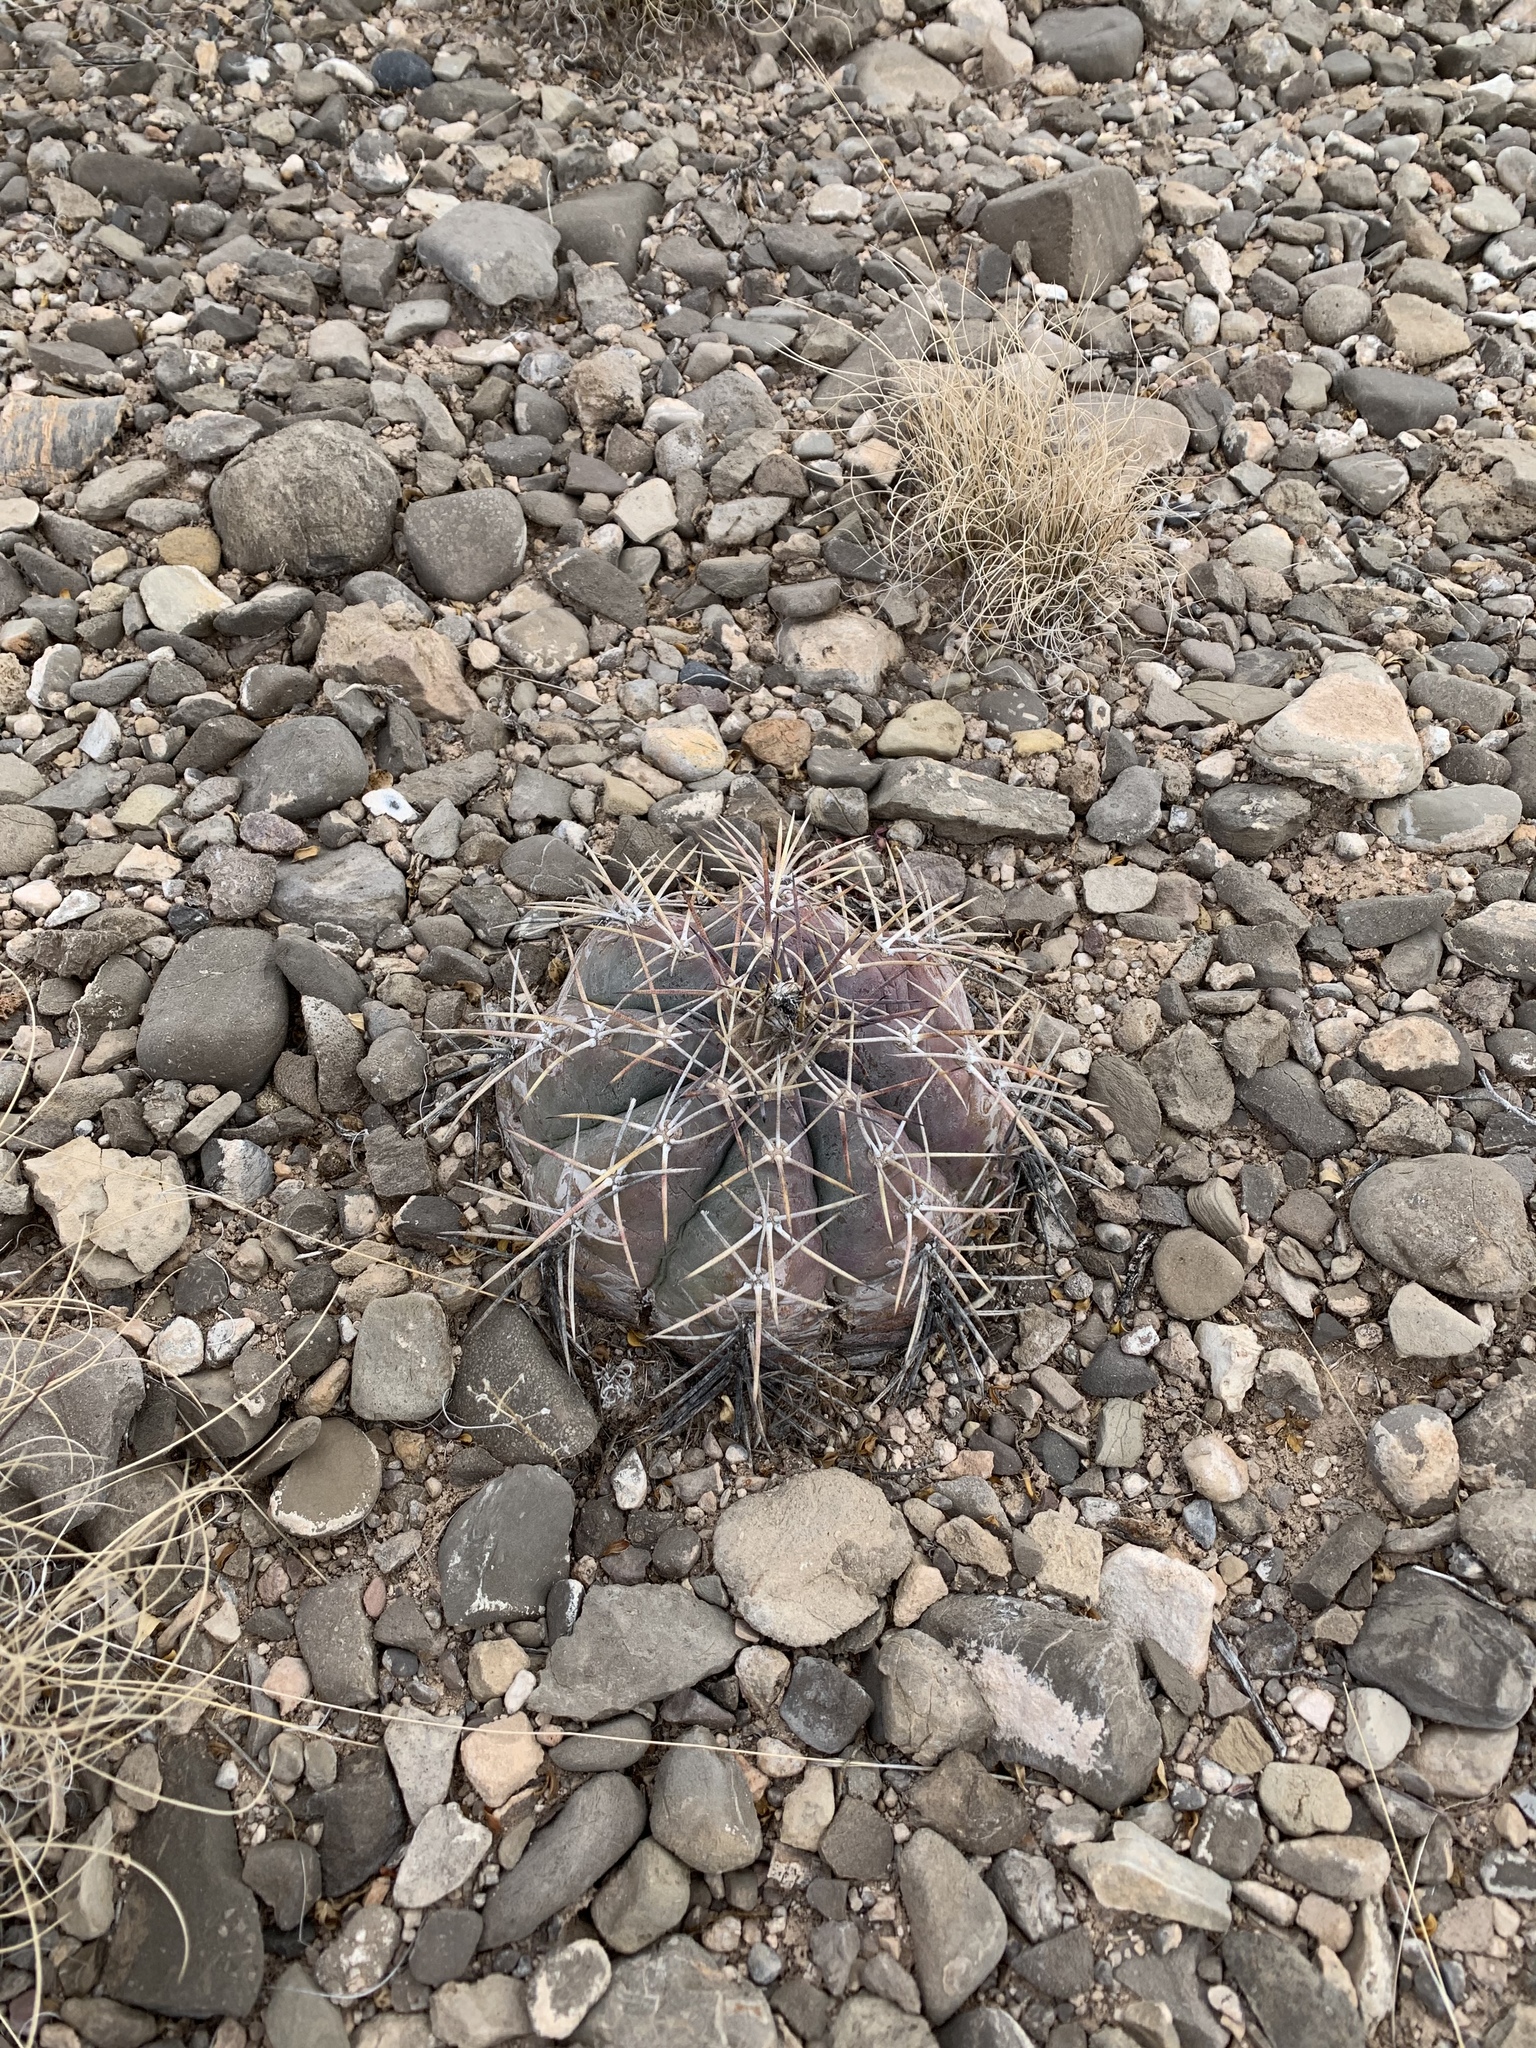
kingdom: Plantae
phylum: Tracheophyta
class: Magnoliopsida
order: Caryophyllales
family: Cactaceae
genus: Echinocactus
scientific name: Echinocactus horizonthalonius
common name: Devilshead
